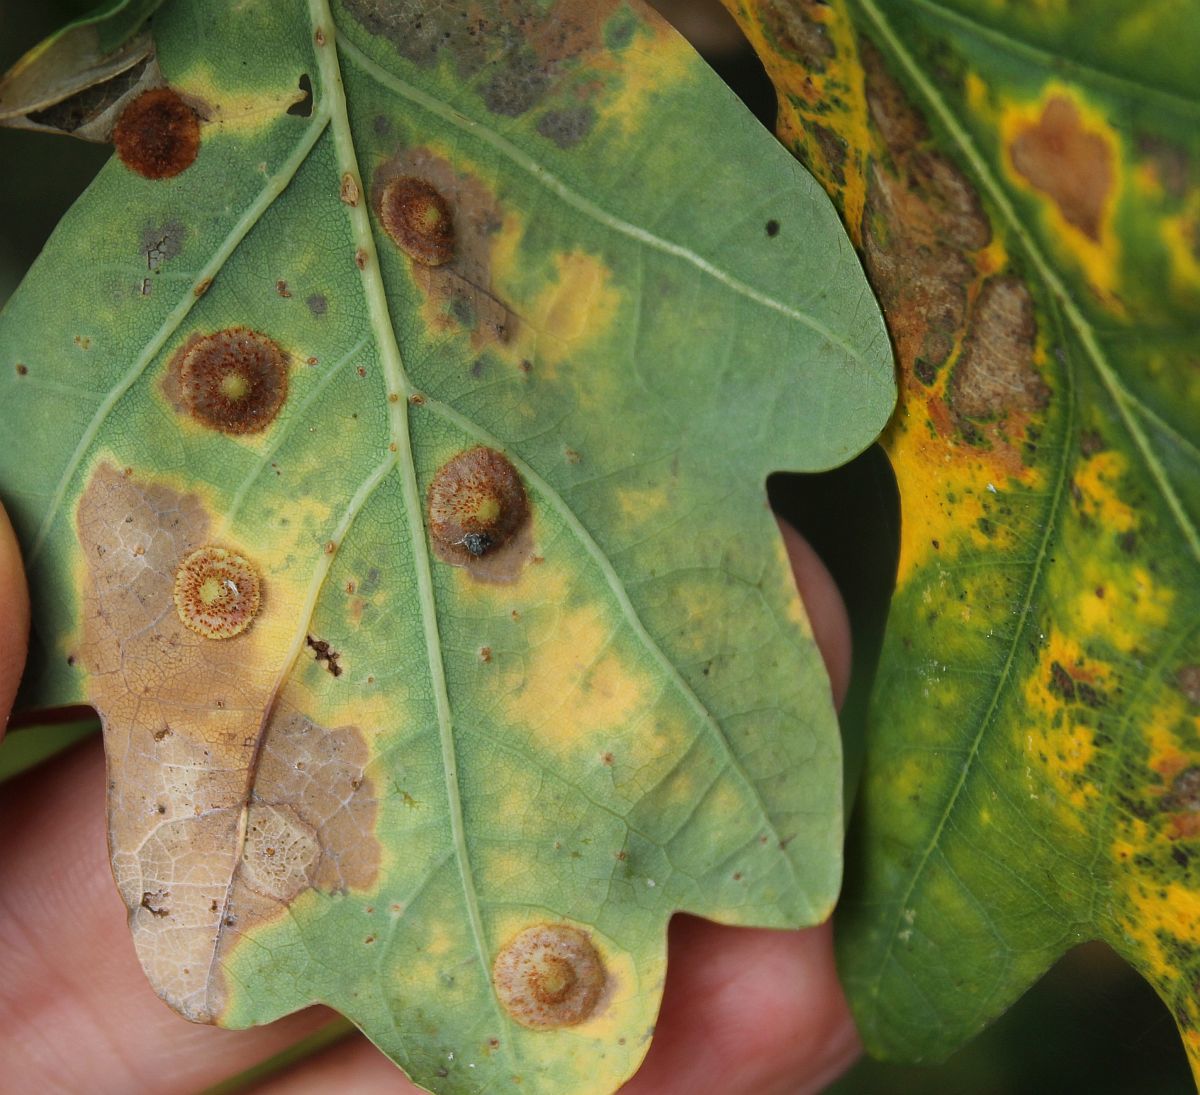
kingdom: Animalia
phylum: Arthropoda
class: Insecta
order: Hymenoptera
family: Cynipidae
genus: Neuroterus
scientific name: Neuroterus quercusbaccarum
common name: Common spangle gall
